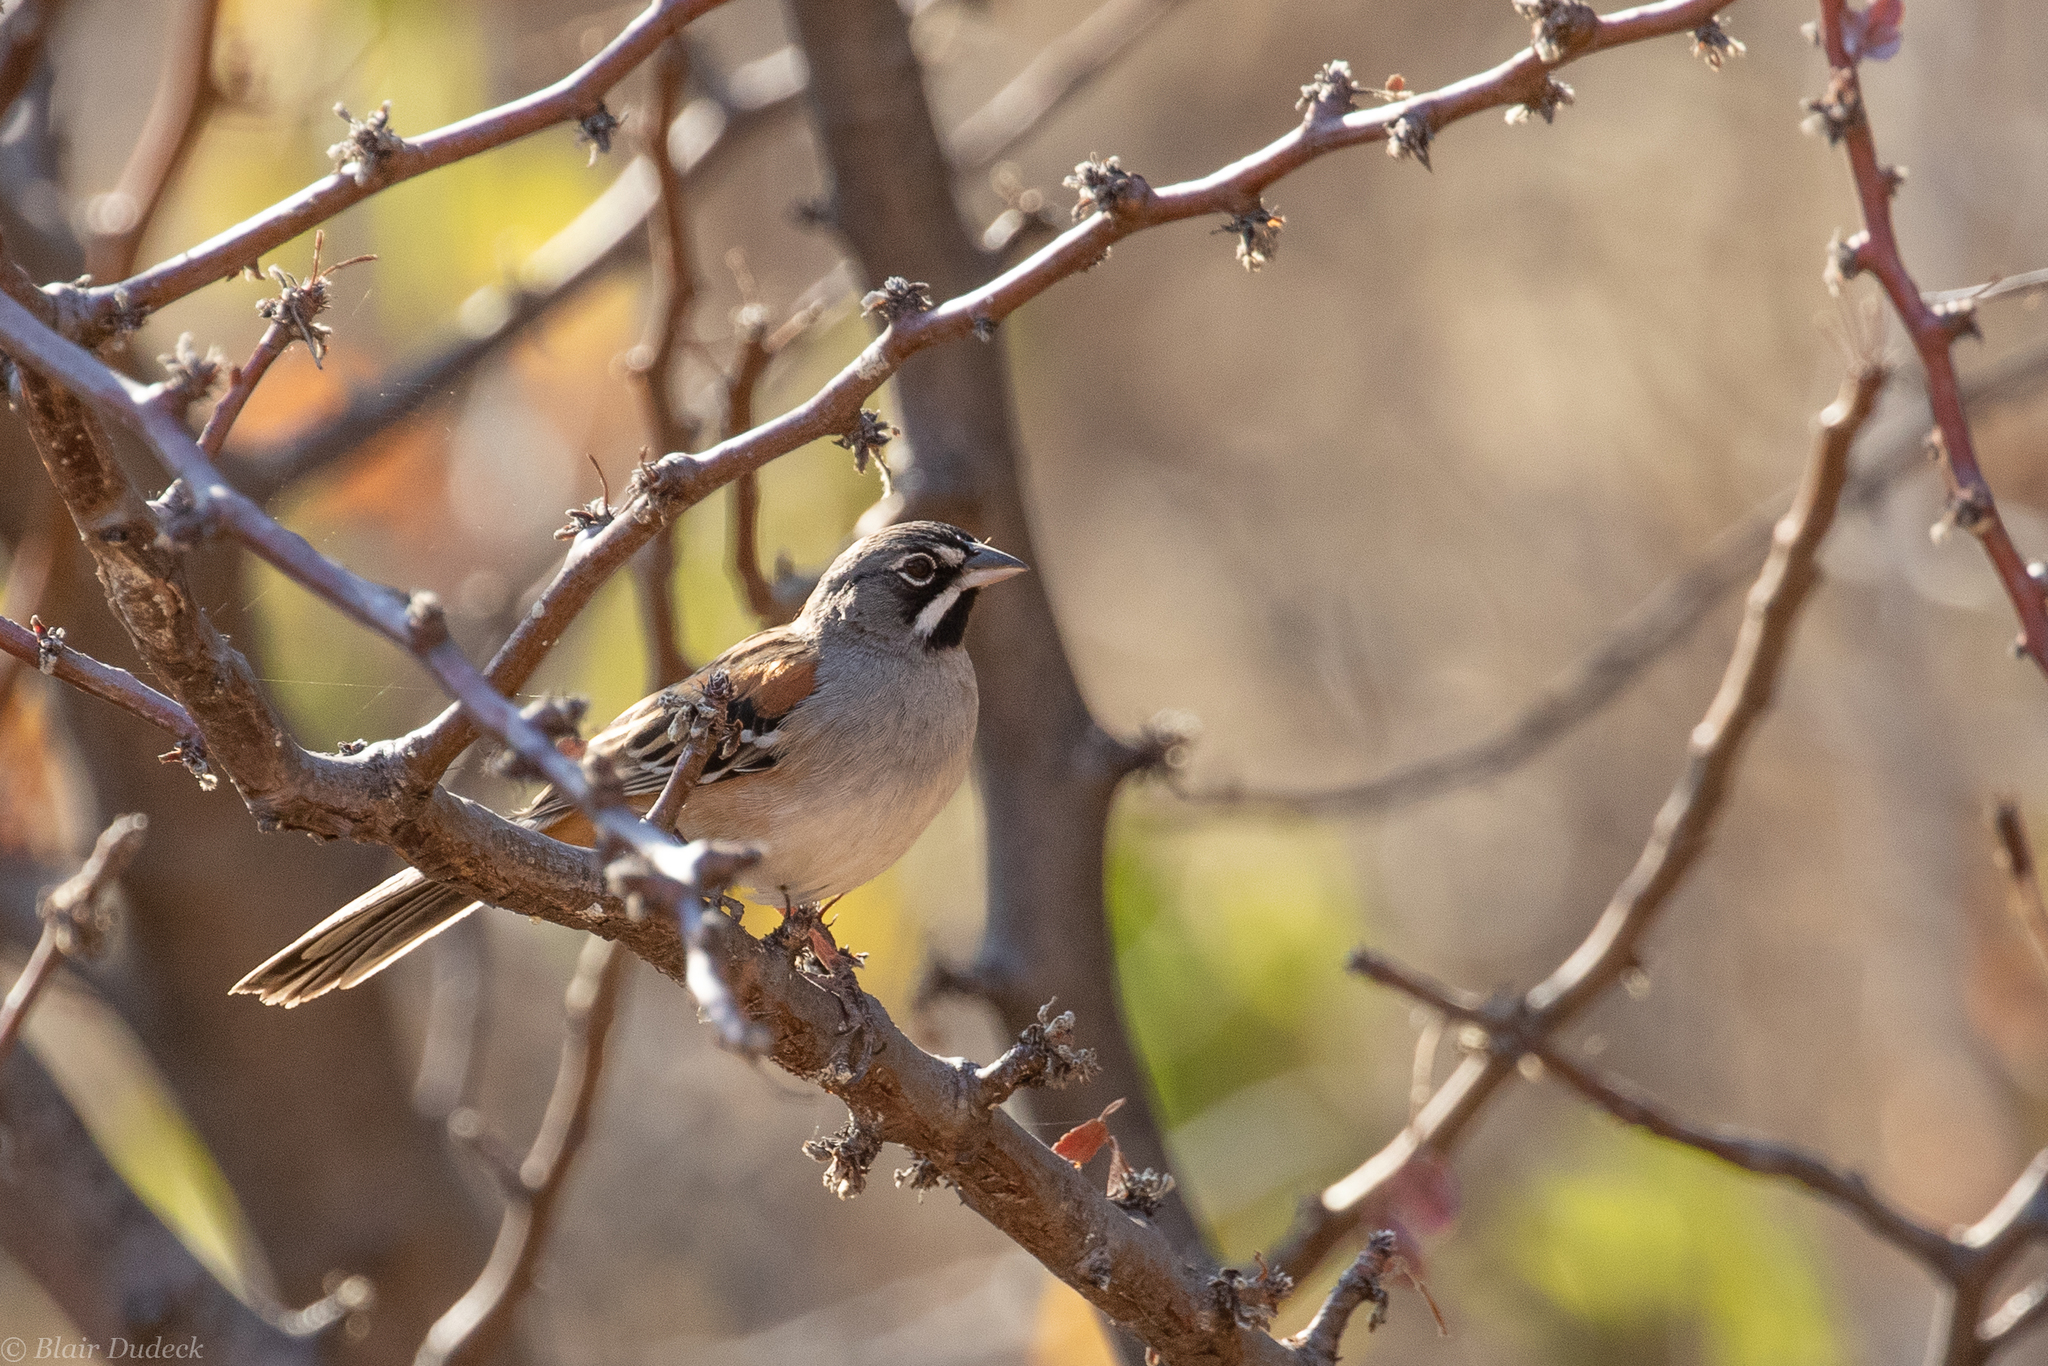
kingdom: Animalia
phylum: Chordata
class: Aves
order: Passeriformes
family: Passerellidae
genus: Peucaea
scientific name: Peucaea mystacalis
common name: Bridled sparrow
